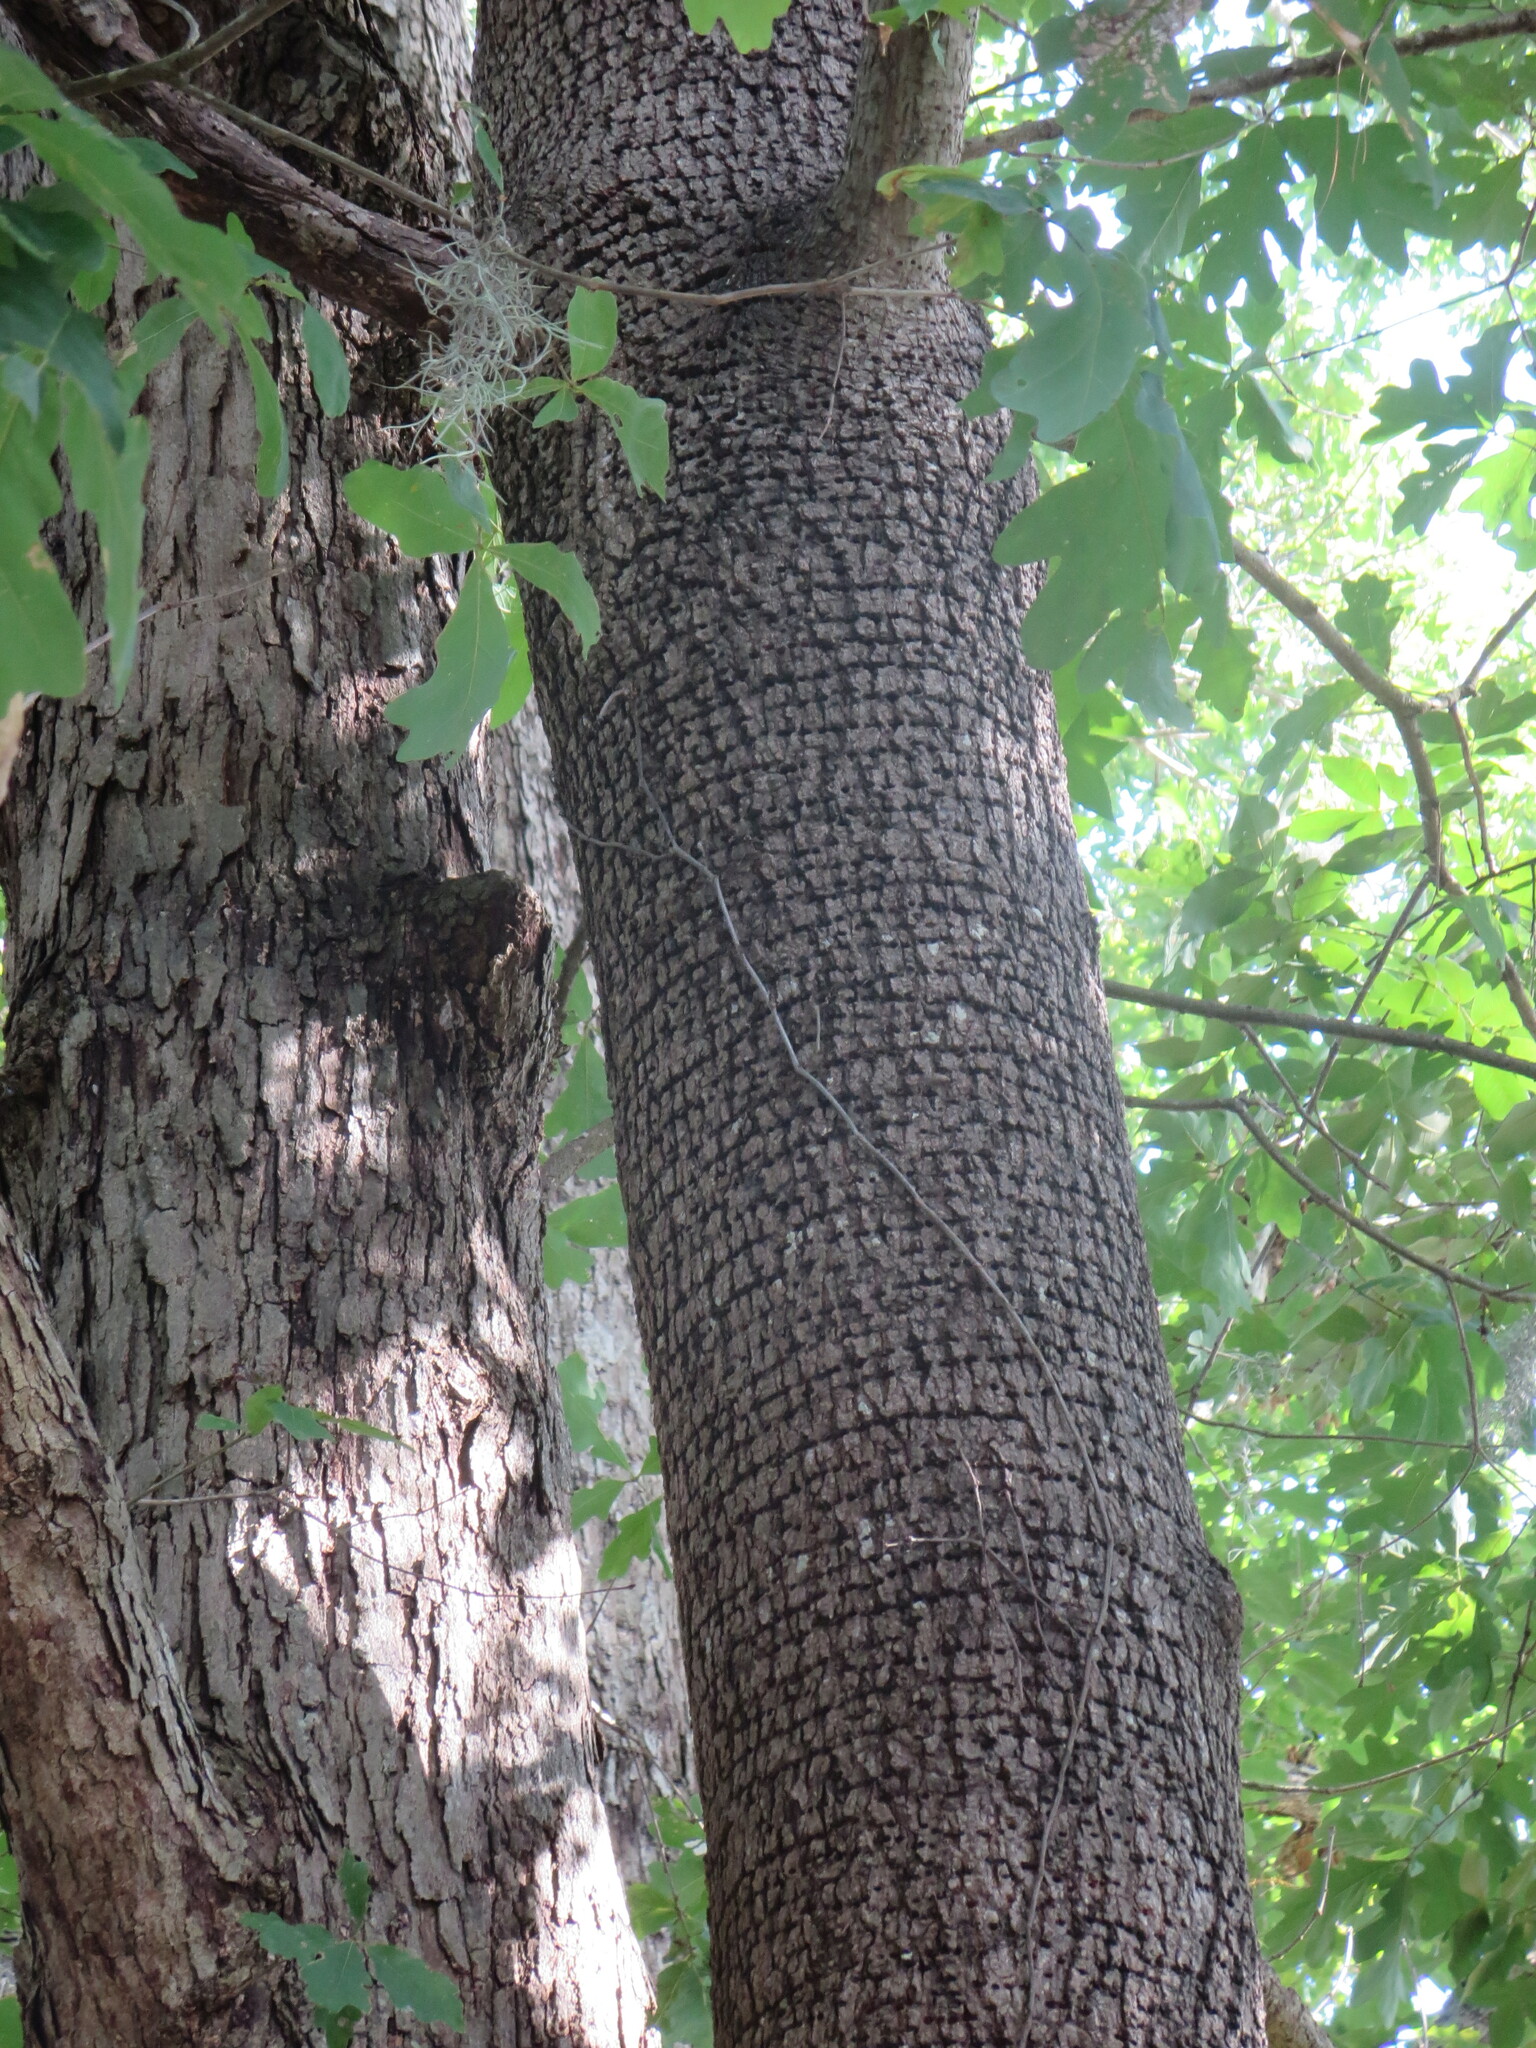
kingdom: Animalia
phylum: Chordata
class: Aves
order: Piciformes
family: Picidae
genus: Sphyrapicus
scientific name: Sphyrapicus varius
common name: Yellow-bellied sapsucker
